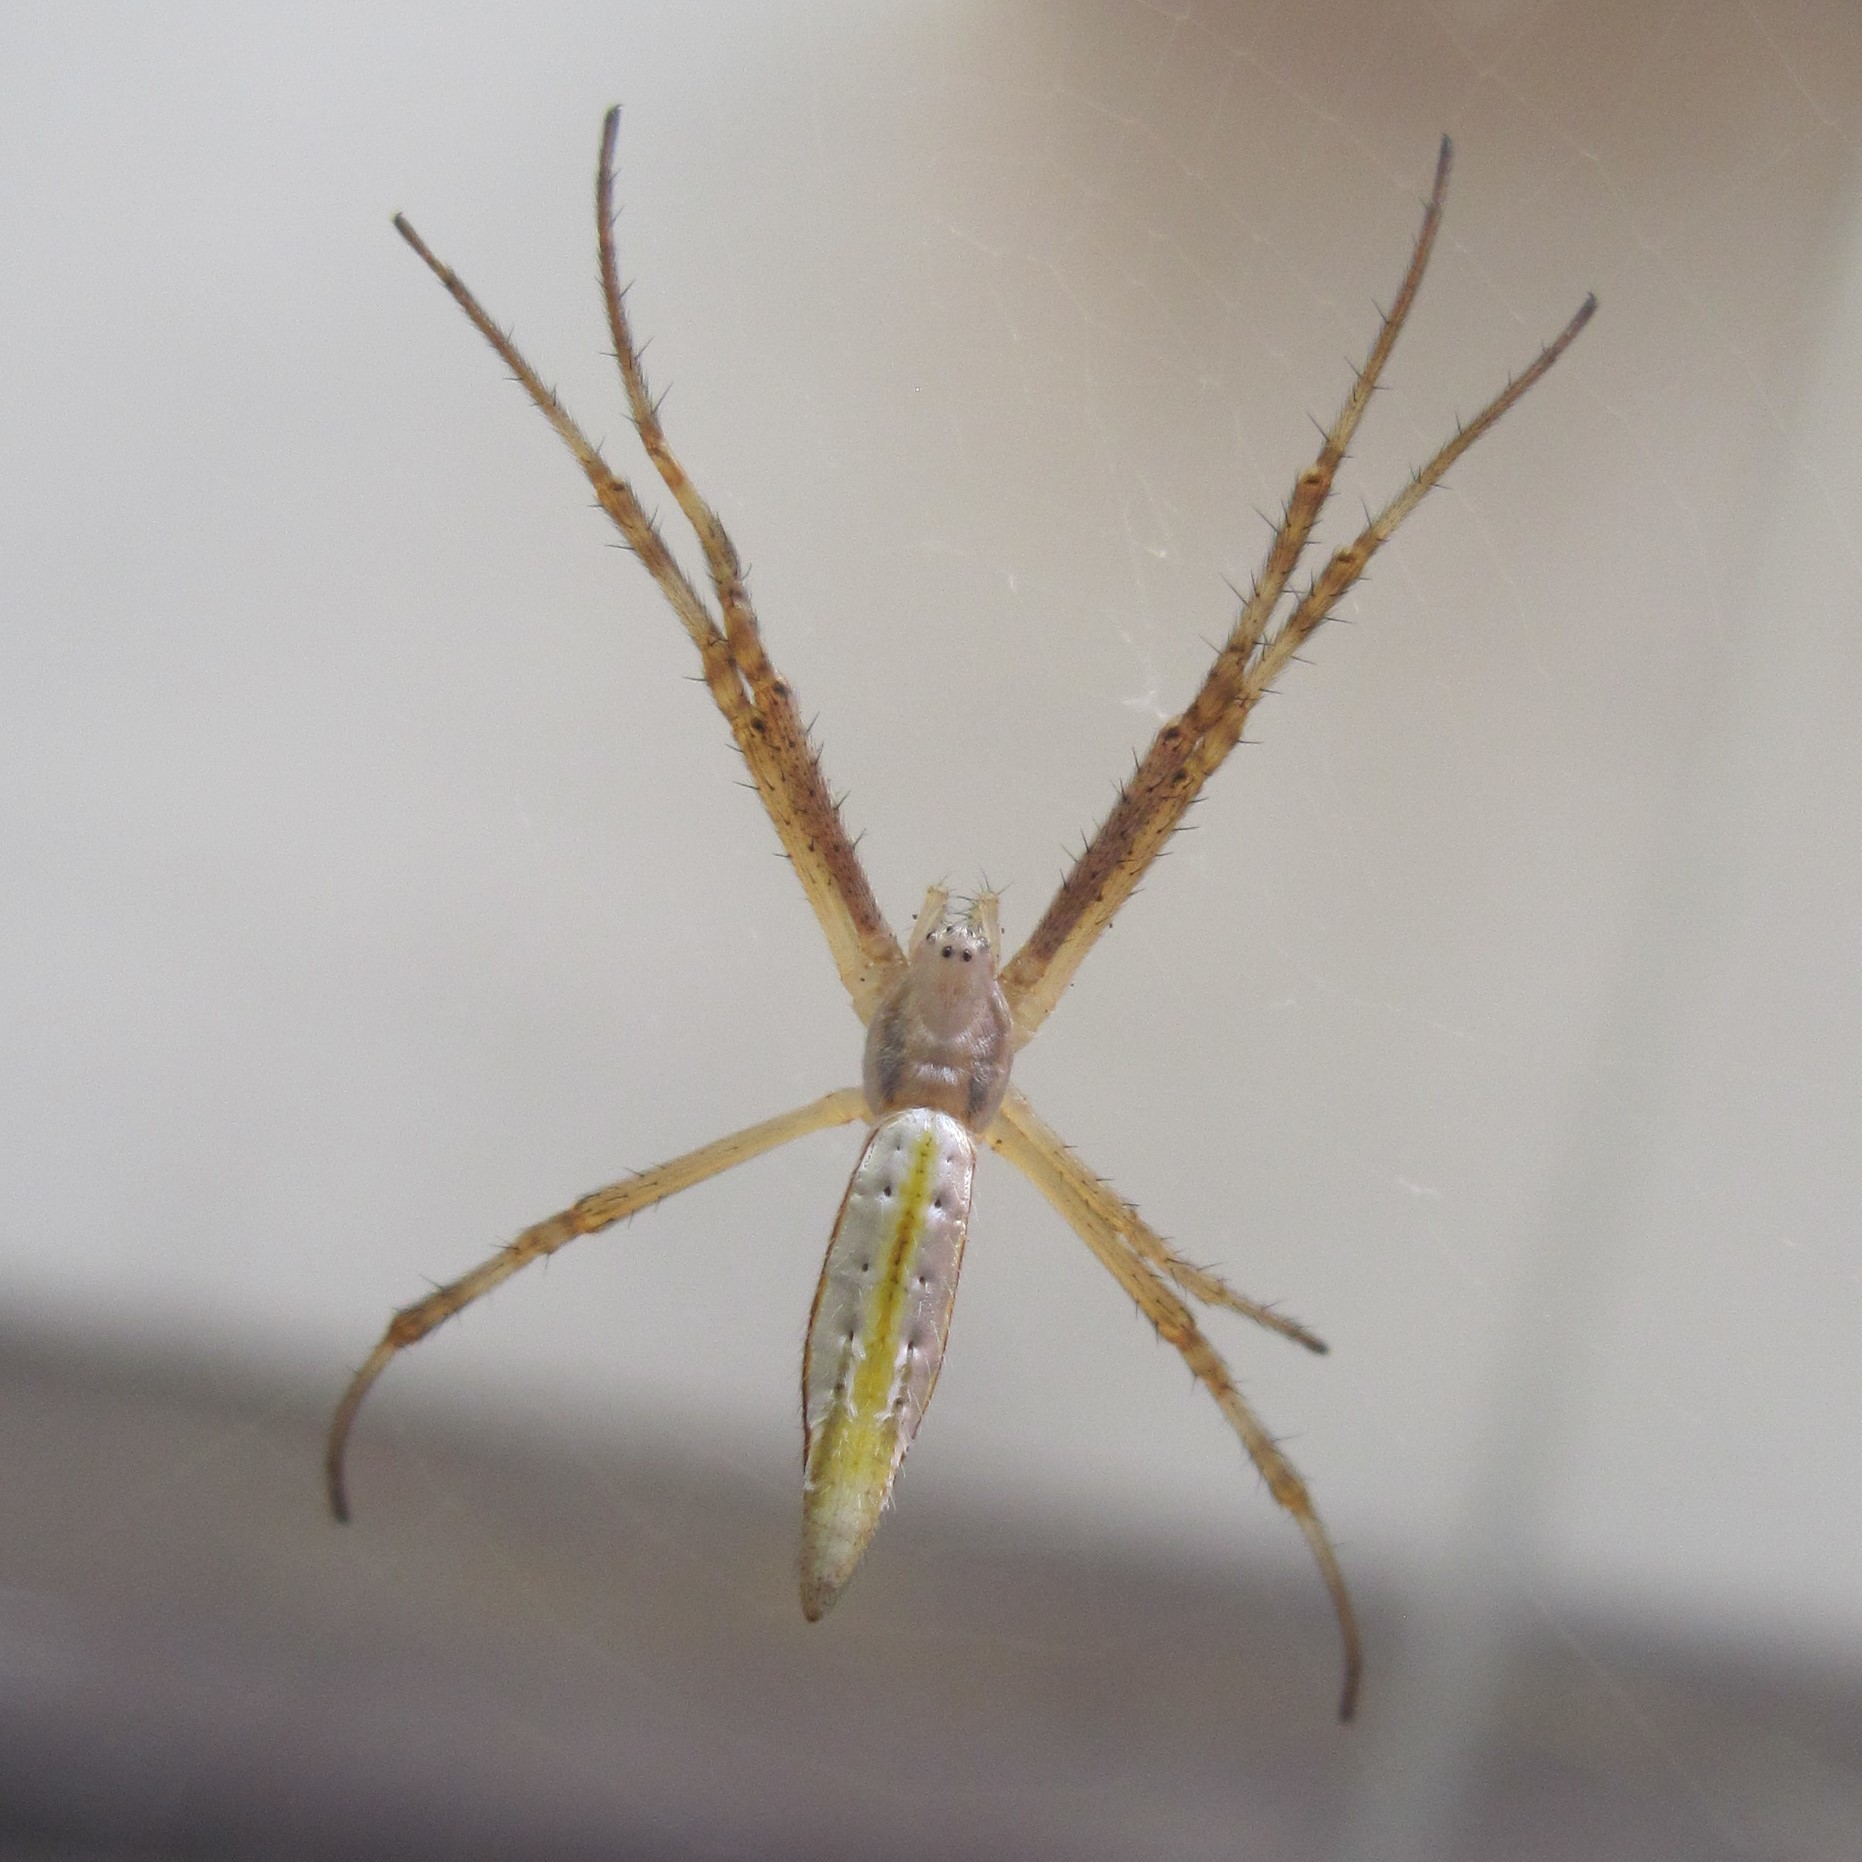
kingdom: Animalia
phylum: Arthropoda
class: Arachnida
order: Araneae
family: Araneidae
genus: Argiope
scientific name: Argiope protensa
